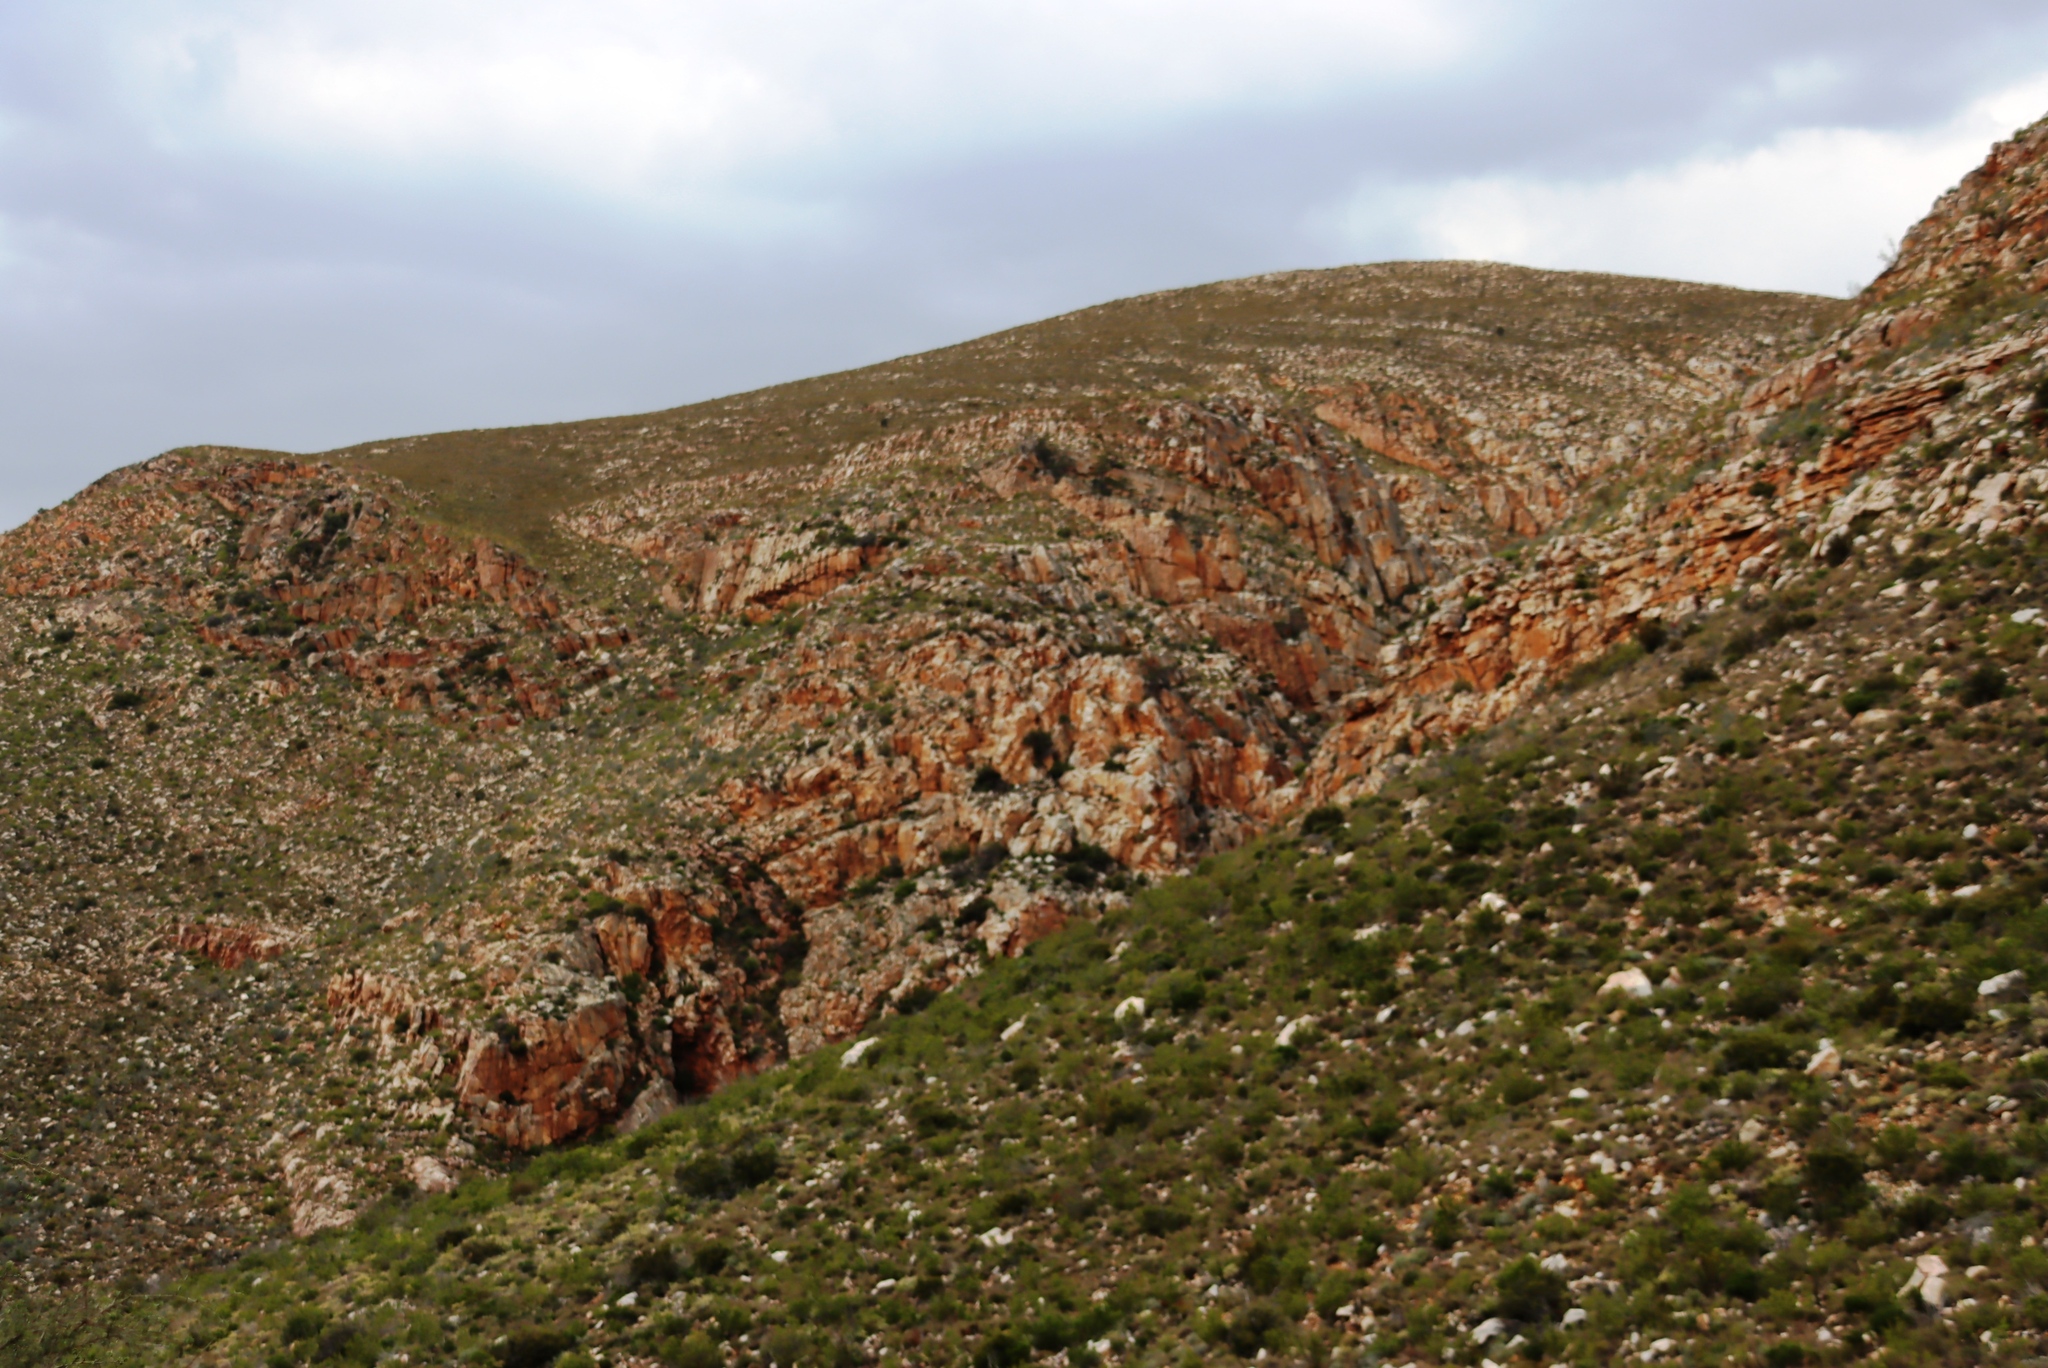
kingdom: Plantae
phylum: Tracheophyta
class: Pinopsida
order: Pinales
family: Cupressaceae
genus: Widdringtonia
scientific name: Widdringtonia schwarzii
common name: Baviaans cedar
